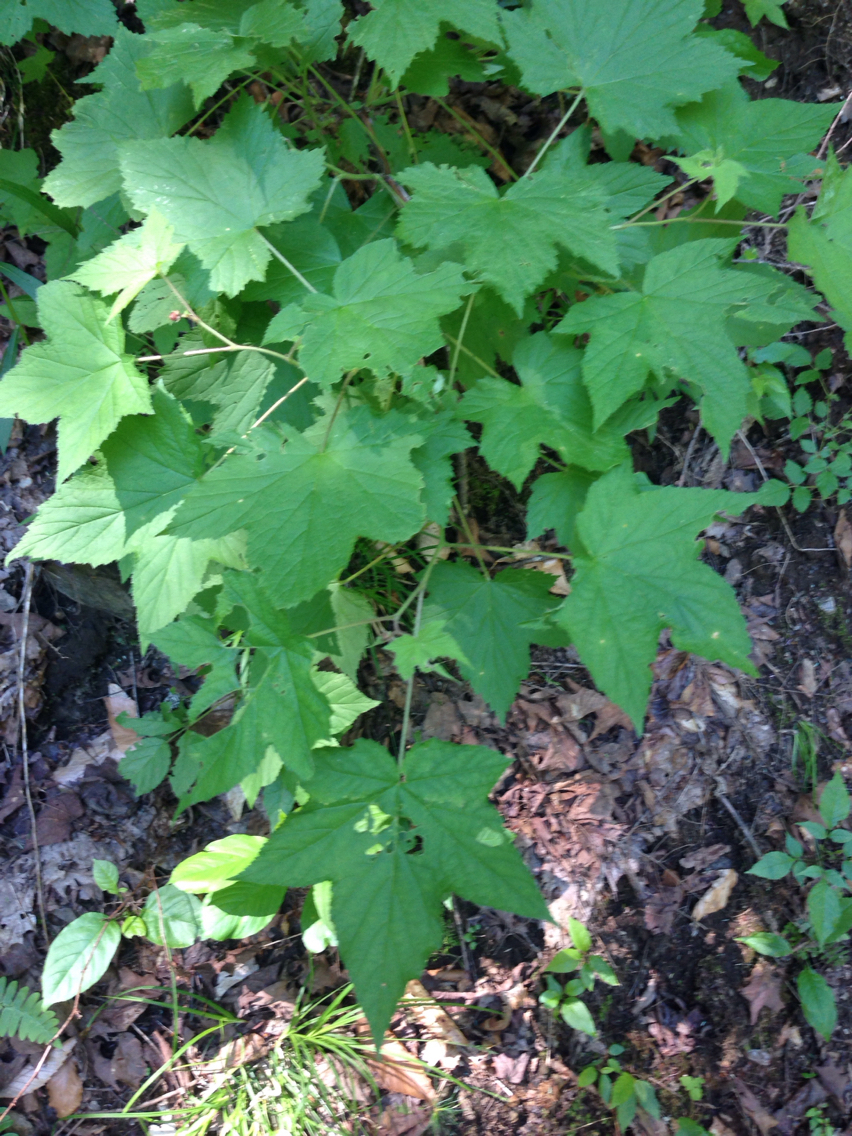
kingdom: Plantae
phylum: Tracheophyta
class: Magnoliopsida
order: Rosales
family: Rosaceae
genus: Rubus
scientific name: Rubus odoratus
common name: Purple-flowered raspberry
